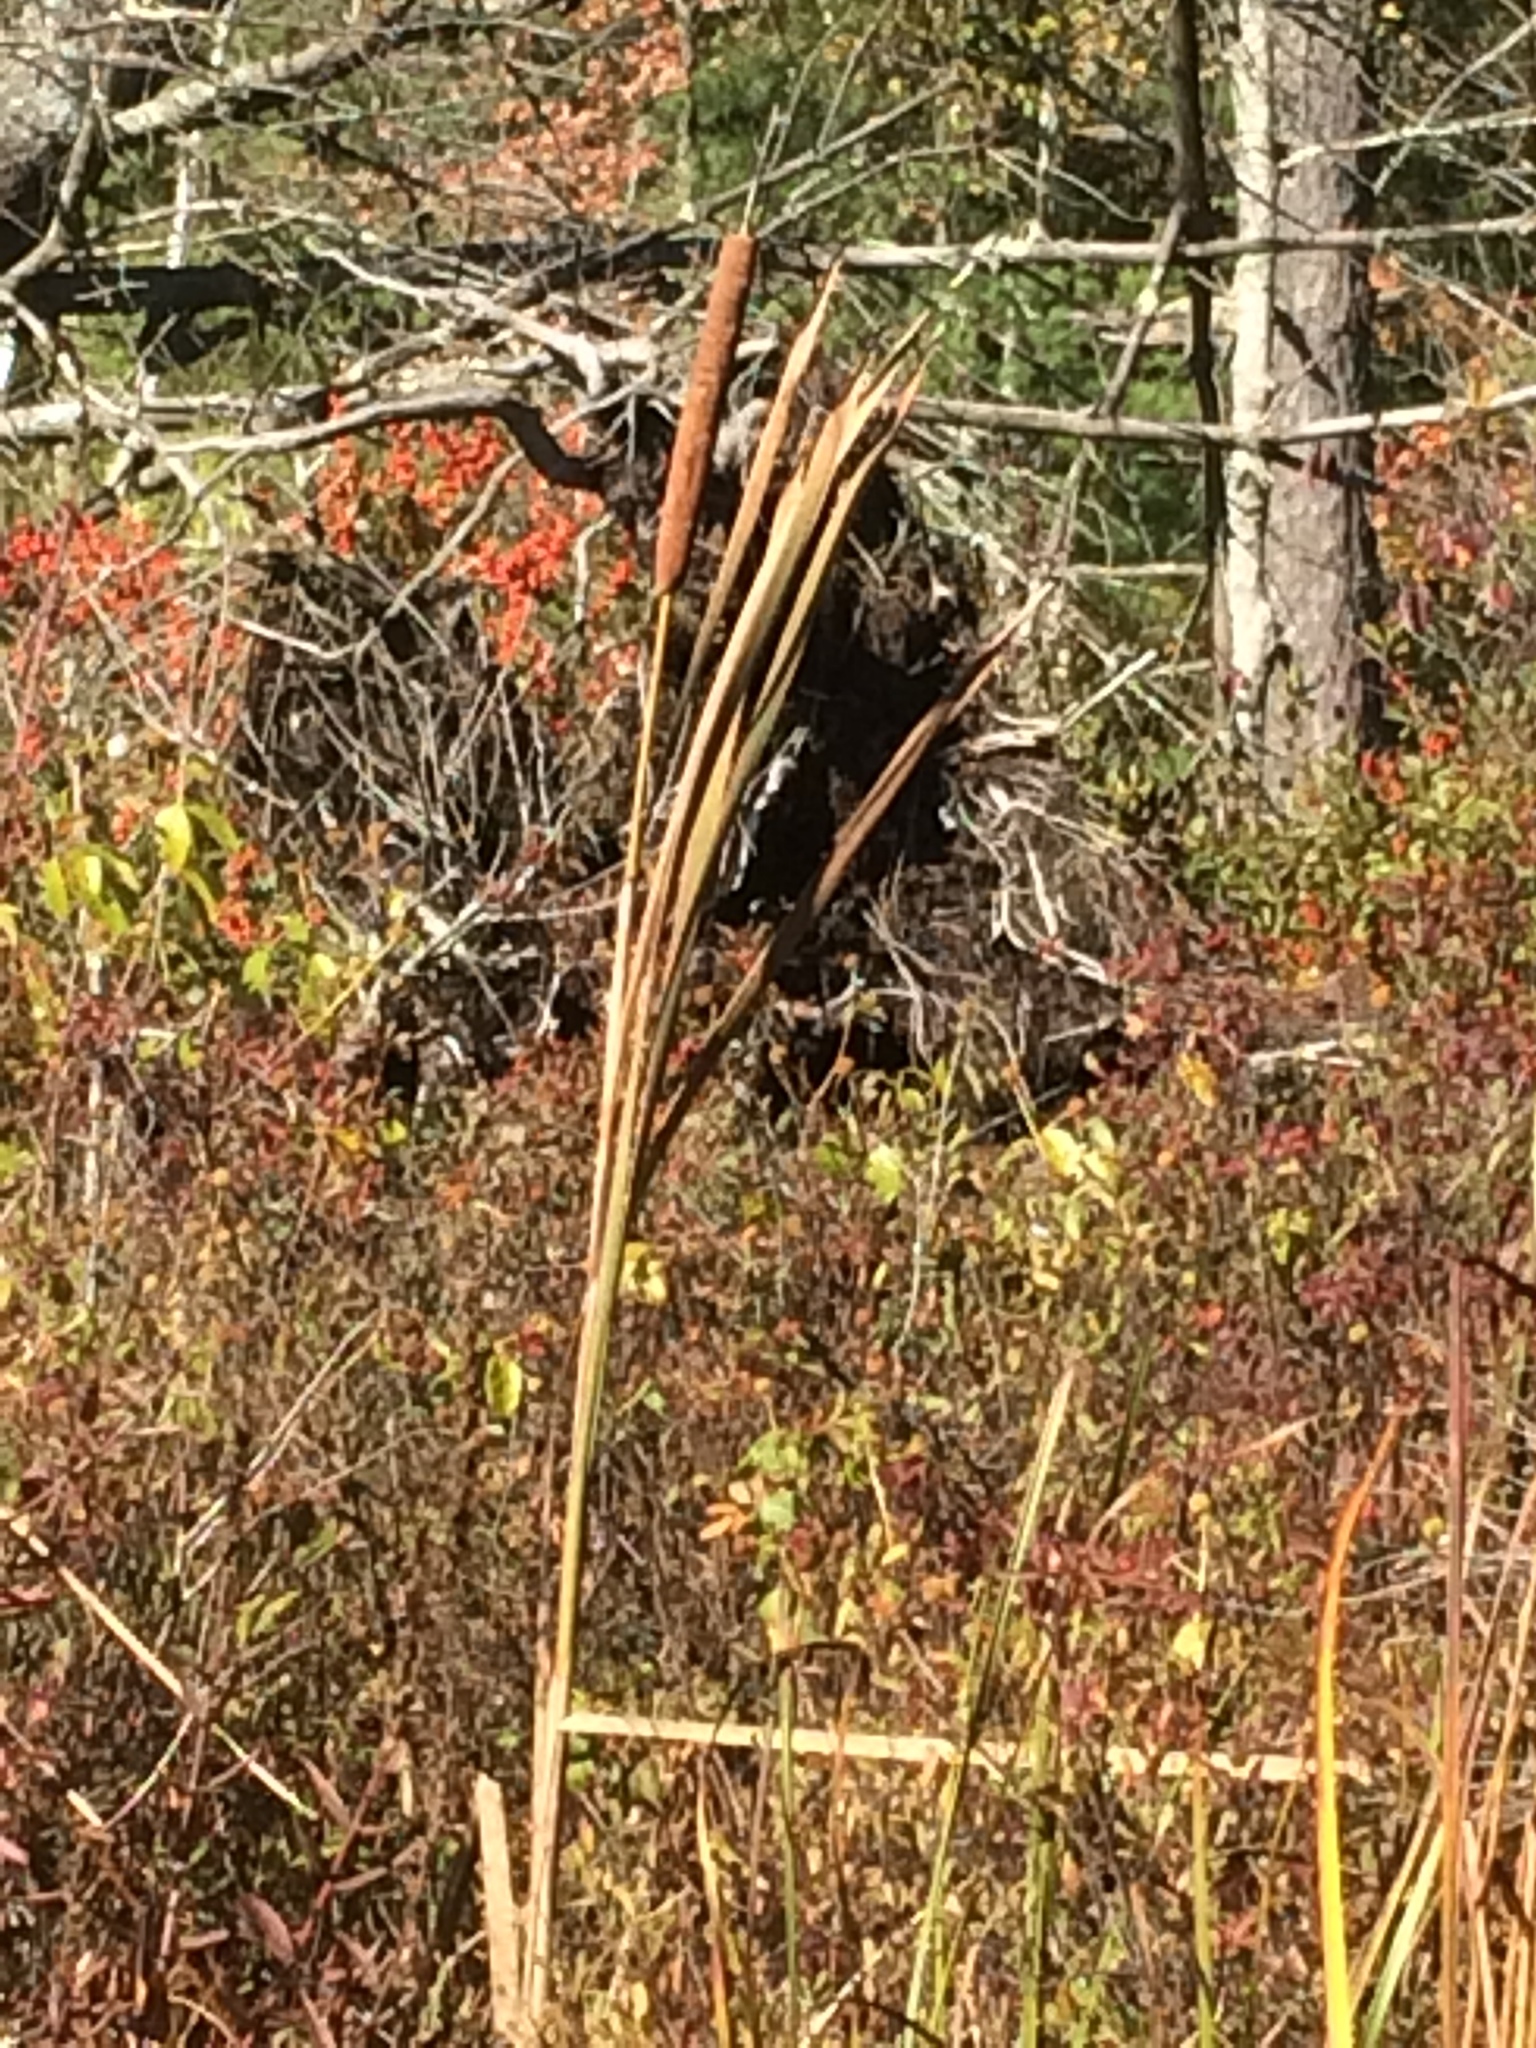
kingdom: Plantae
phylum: Tracheophyta
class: Liliopsida
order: Poales
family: Typhaceae
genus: Typha
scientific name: Typha latifolia
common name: Broadleaf cattail
